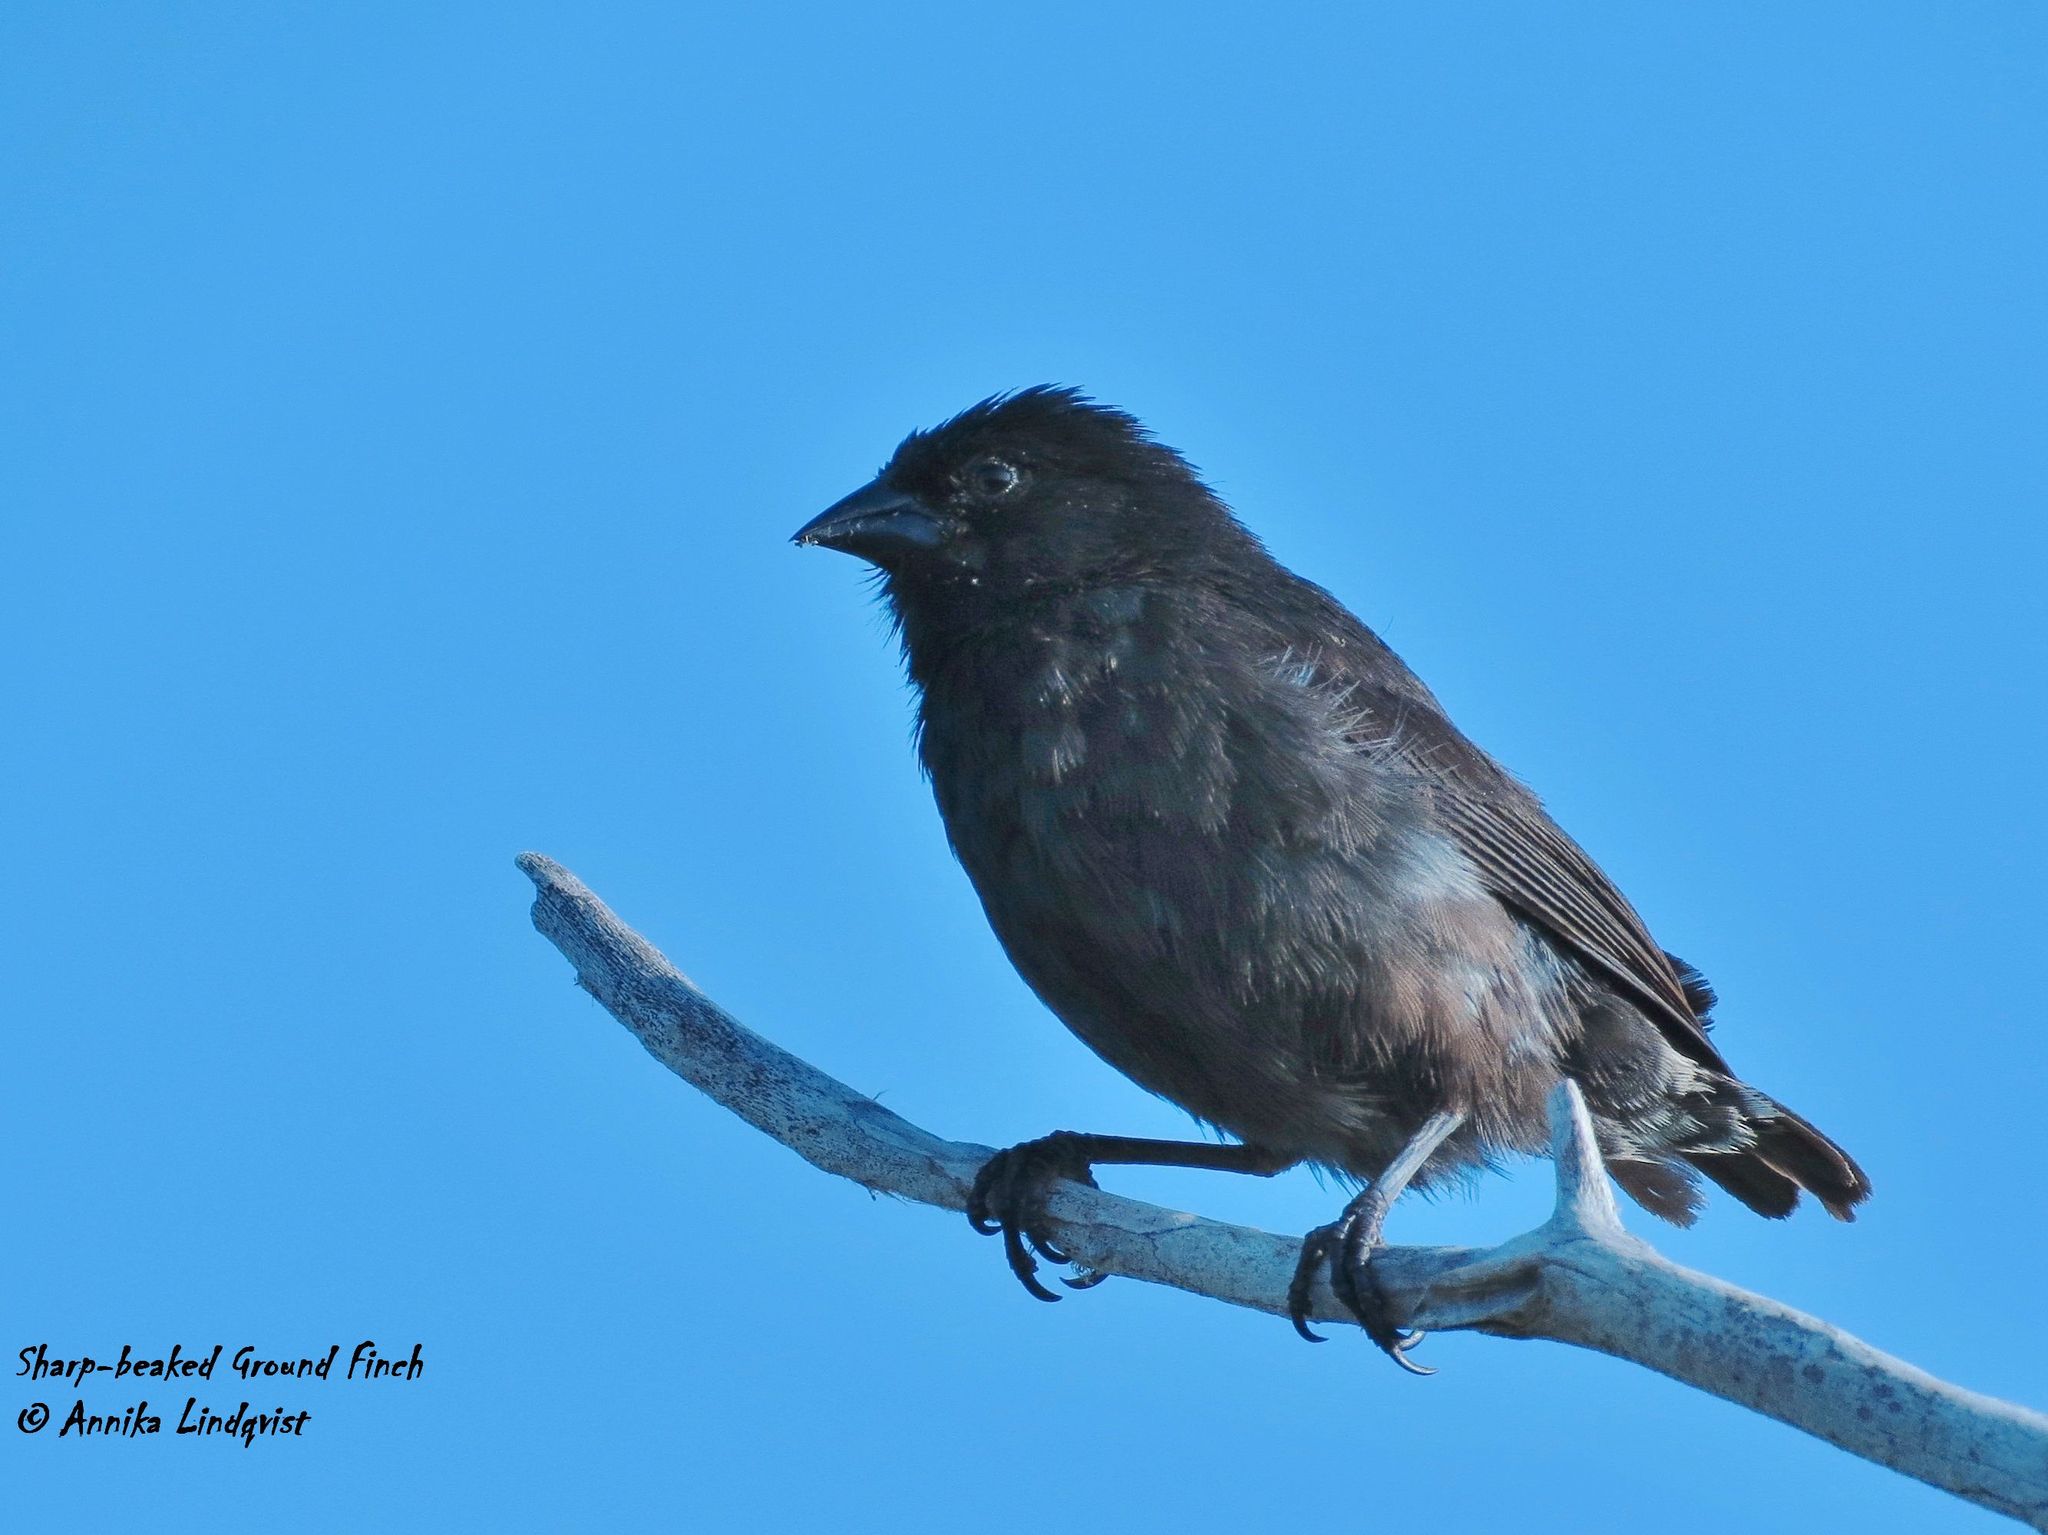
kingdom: Animalia
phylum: Chordata
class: Aves
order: Passeriformes
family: Thraupidae
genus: Geospiza
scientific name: Geospiza acutirostris
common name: Genovesa ground-finch
